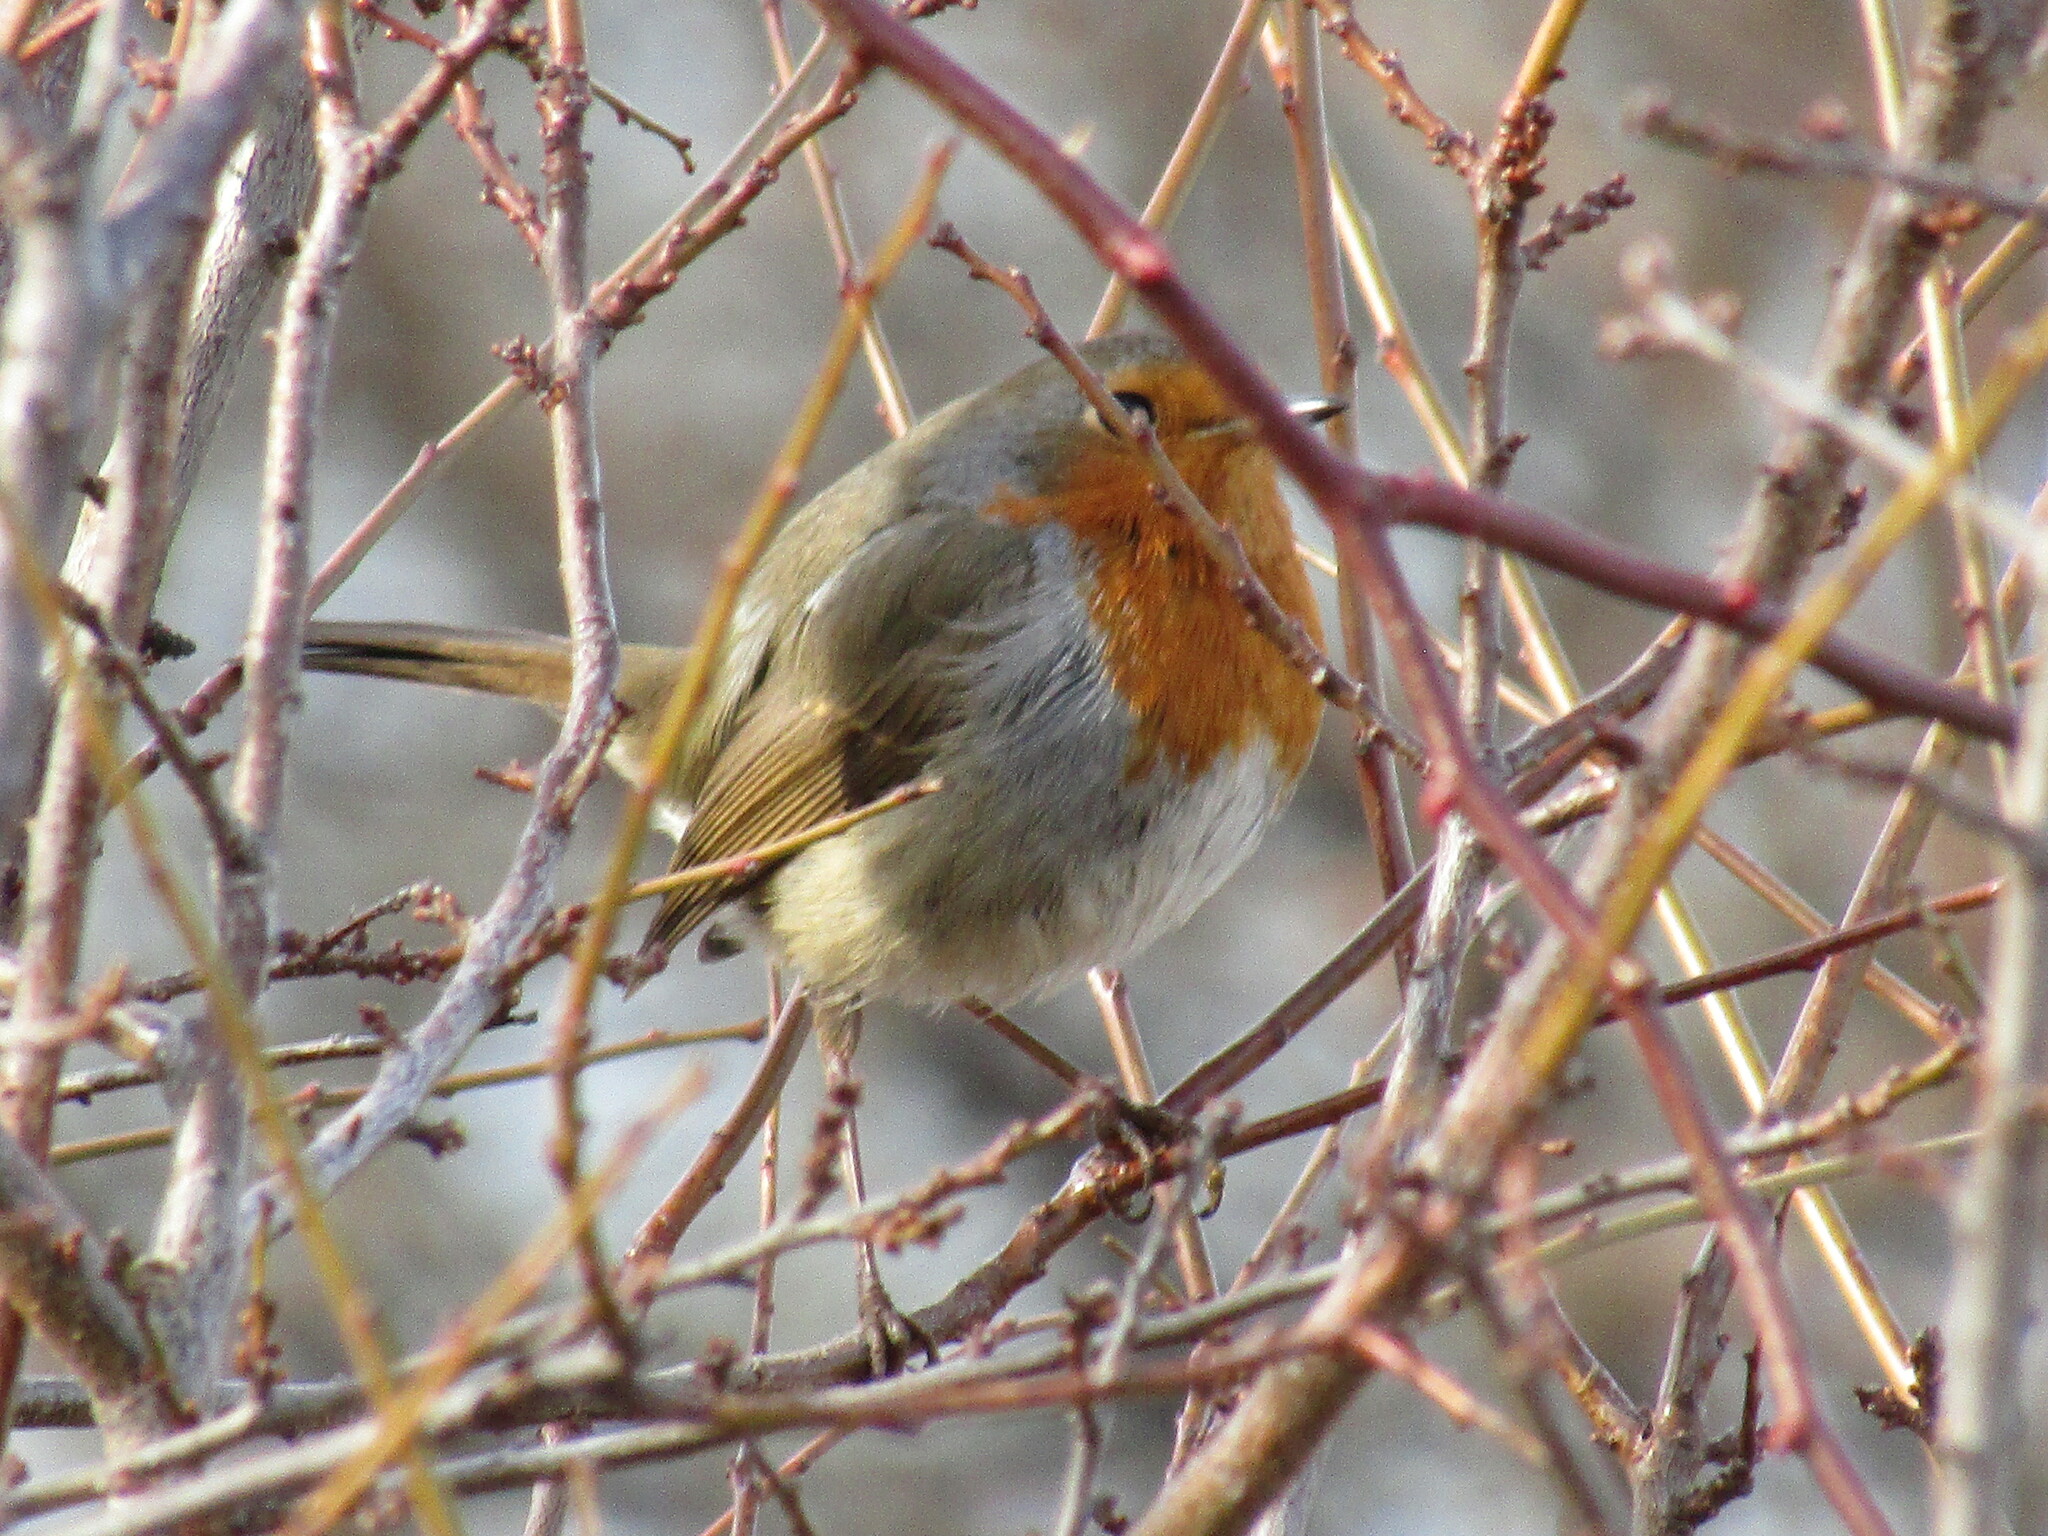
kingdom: Animalia
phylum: Chordata
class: Aves
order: Passeriformes
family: Muscicapidae
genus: Erithacus
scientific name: Erithacus rubecula
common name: European robin
